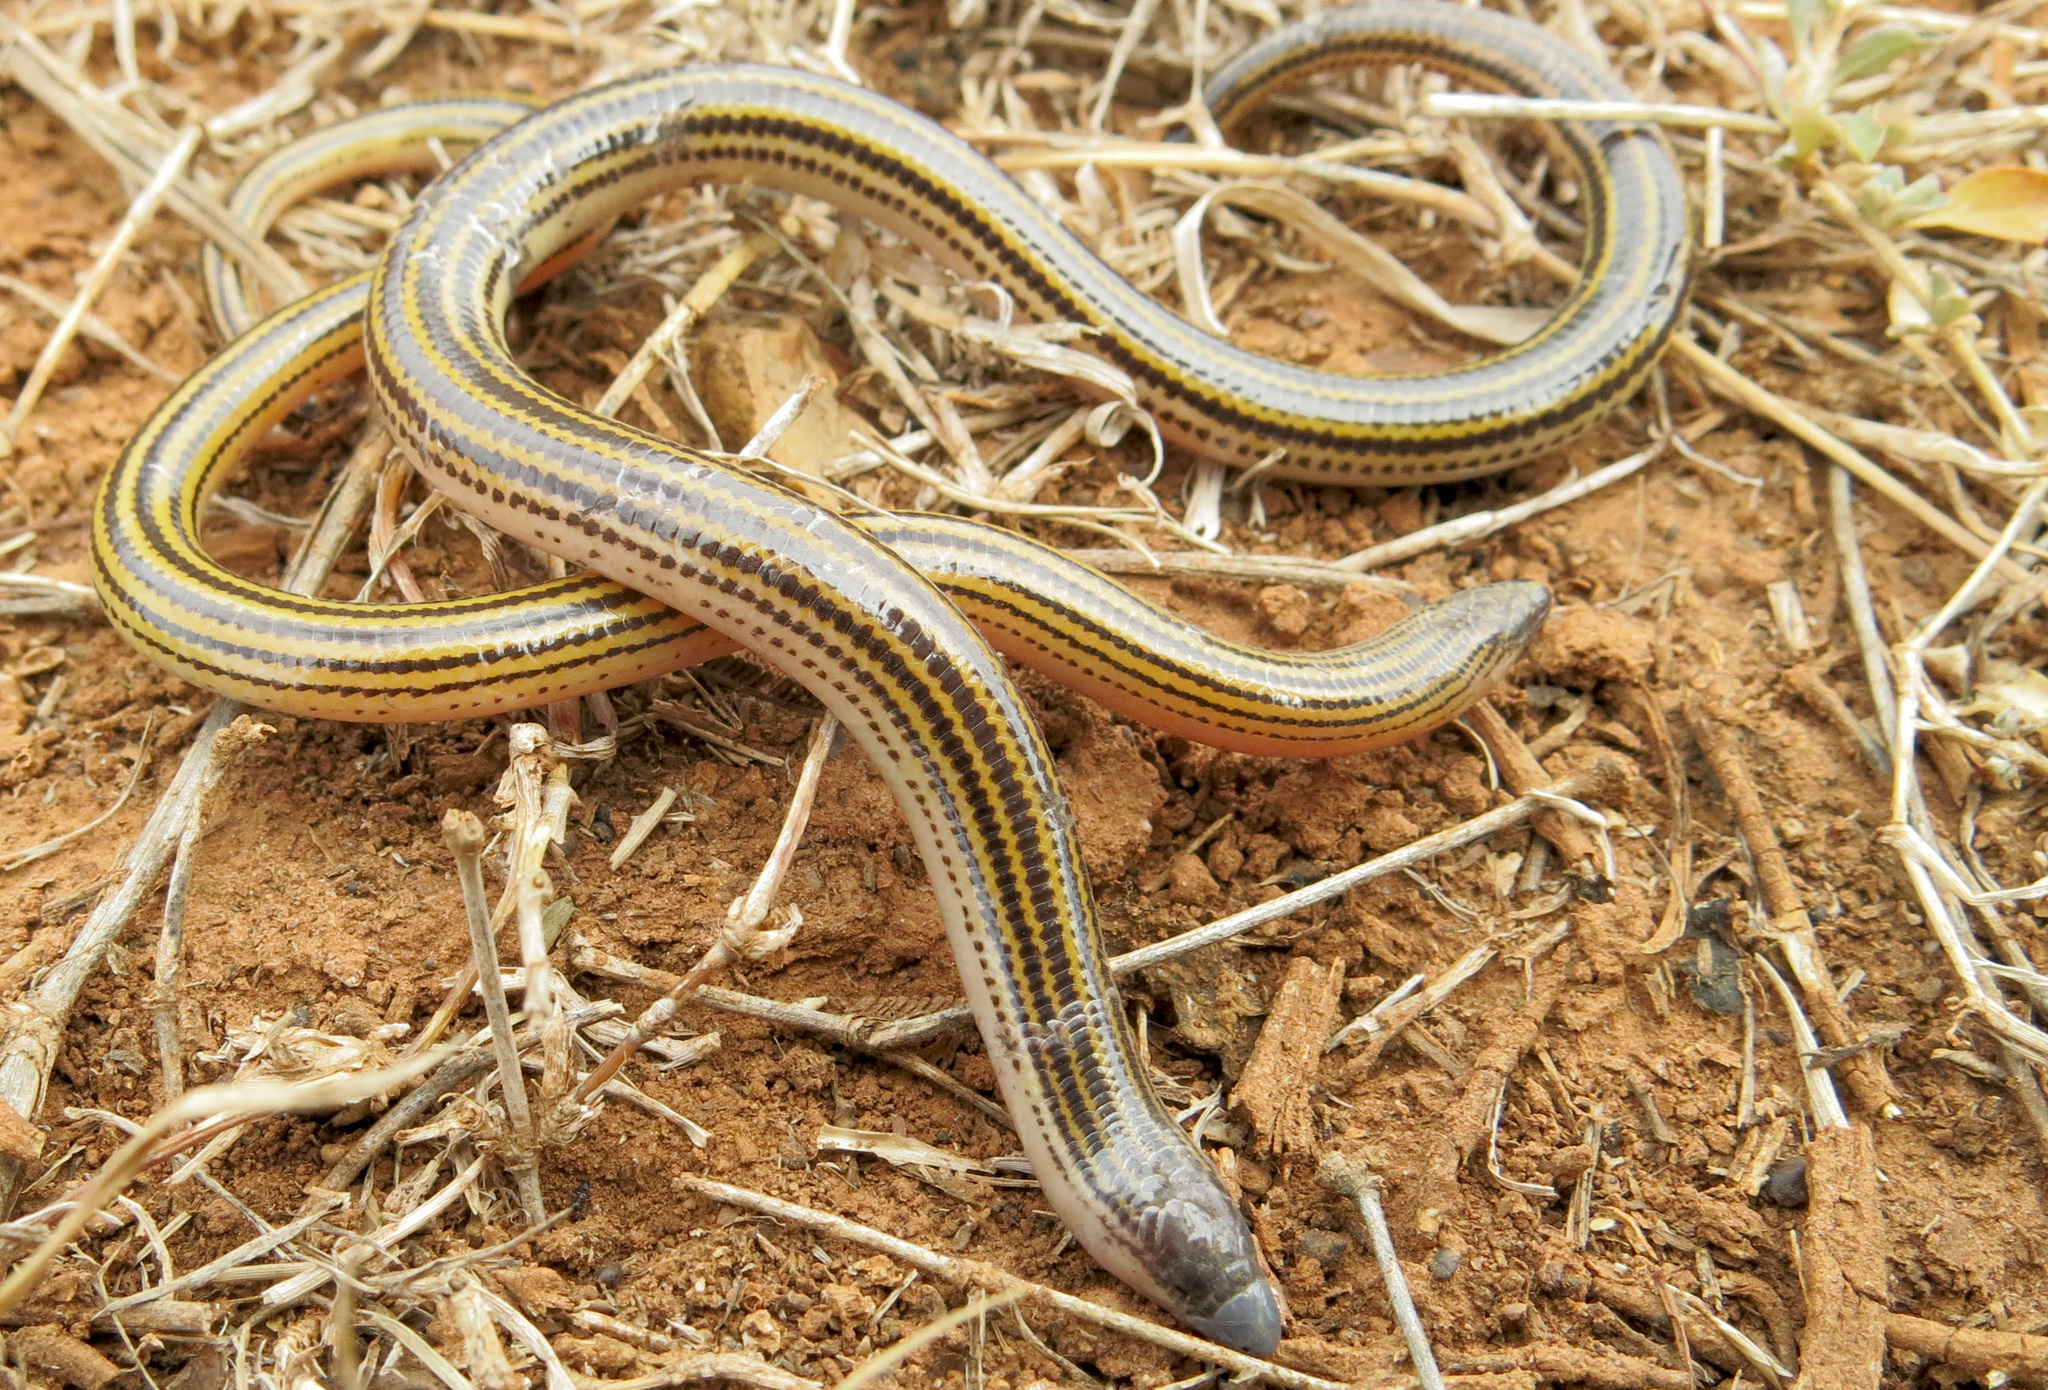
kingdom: Animalia
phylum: Chordata
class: Squamata
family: Scincidae
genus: Acontias
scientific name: Acontias orientalis
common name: Eastern cape legless skink
